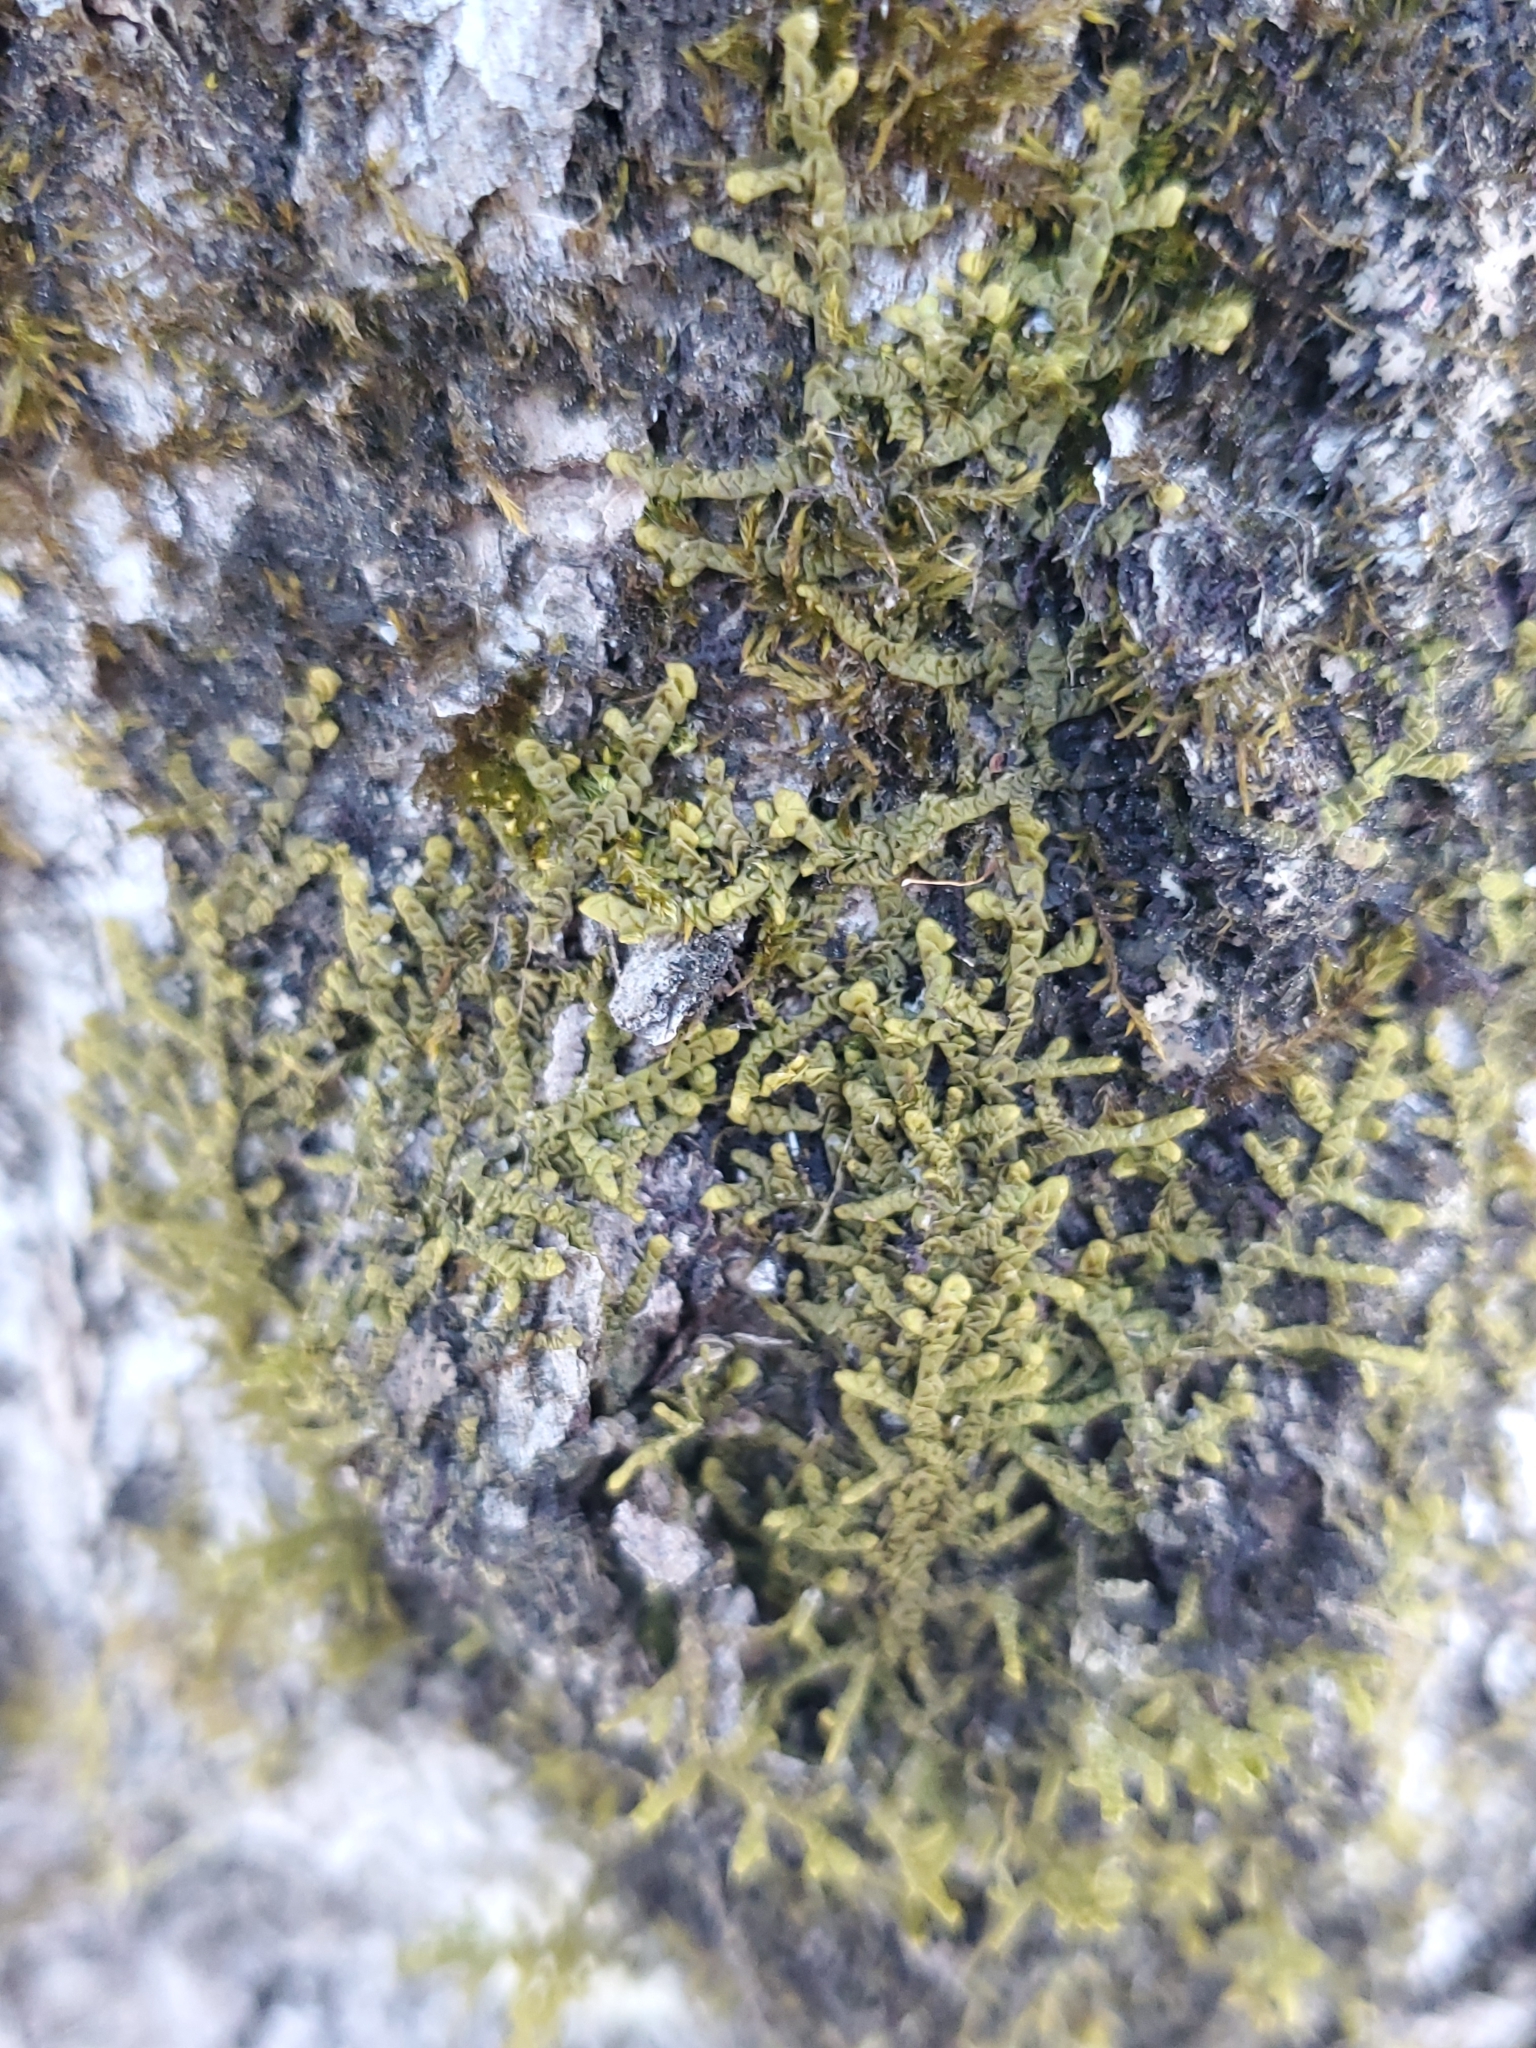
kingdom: Plantae
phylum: Marchantiophyta
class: Jungermanniopsida
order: Porellales
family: Porellaceae
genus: Porella
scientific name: Porella platyphylla
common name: Wall scalewort
